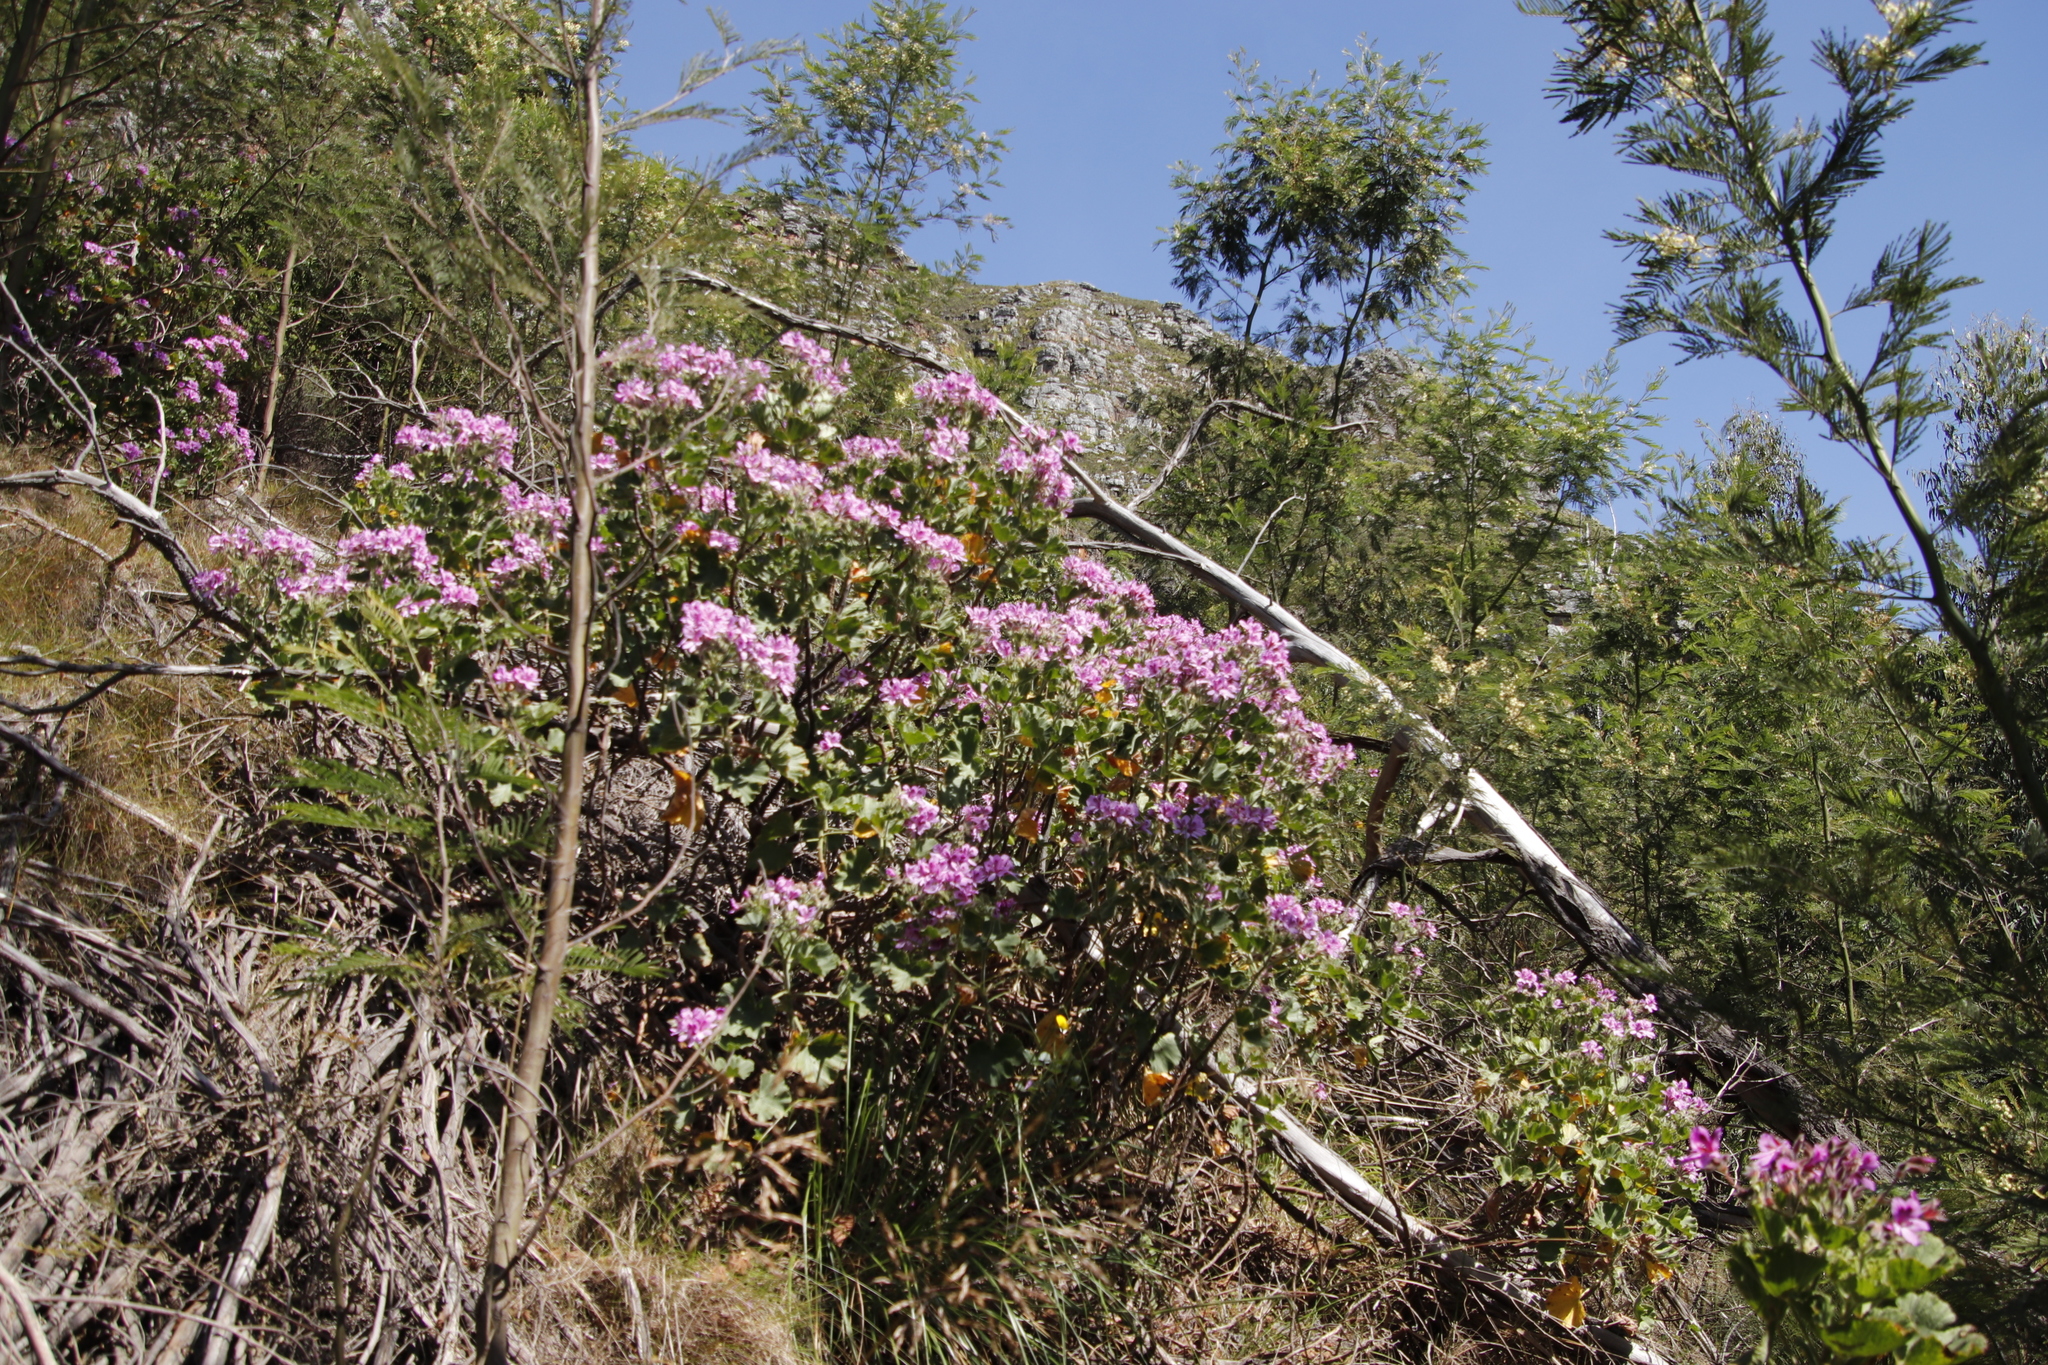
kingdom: Plantae
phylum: Tracheophyta
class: Magnoliopsida
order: Geraniales
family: Geraniaceae
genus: Pelargonium
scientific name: Pelargonium cucullatum
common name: Tree pelargonium
